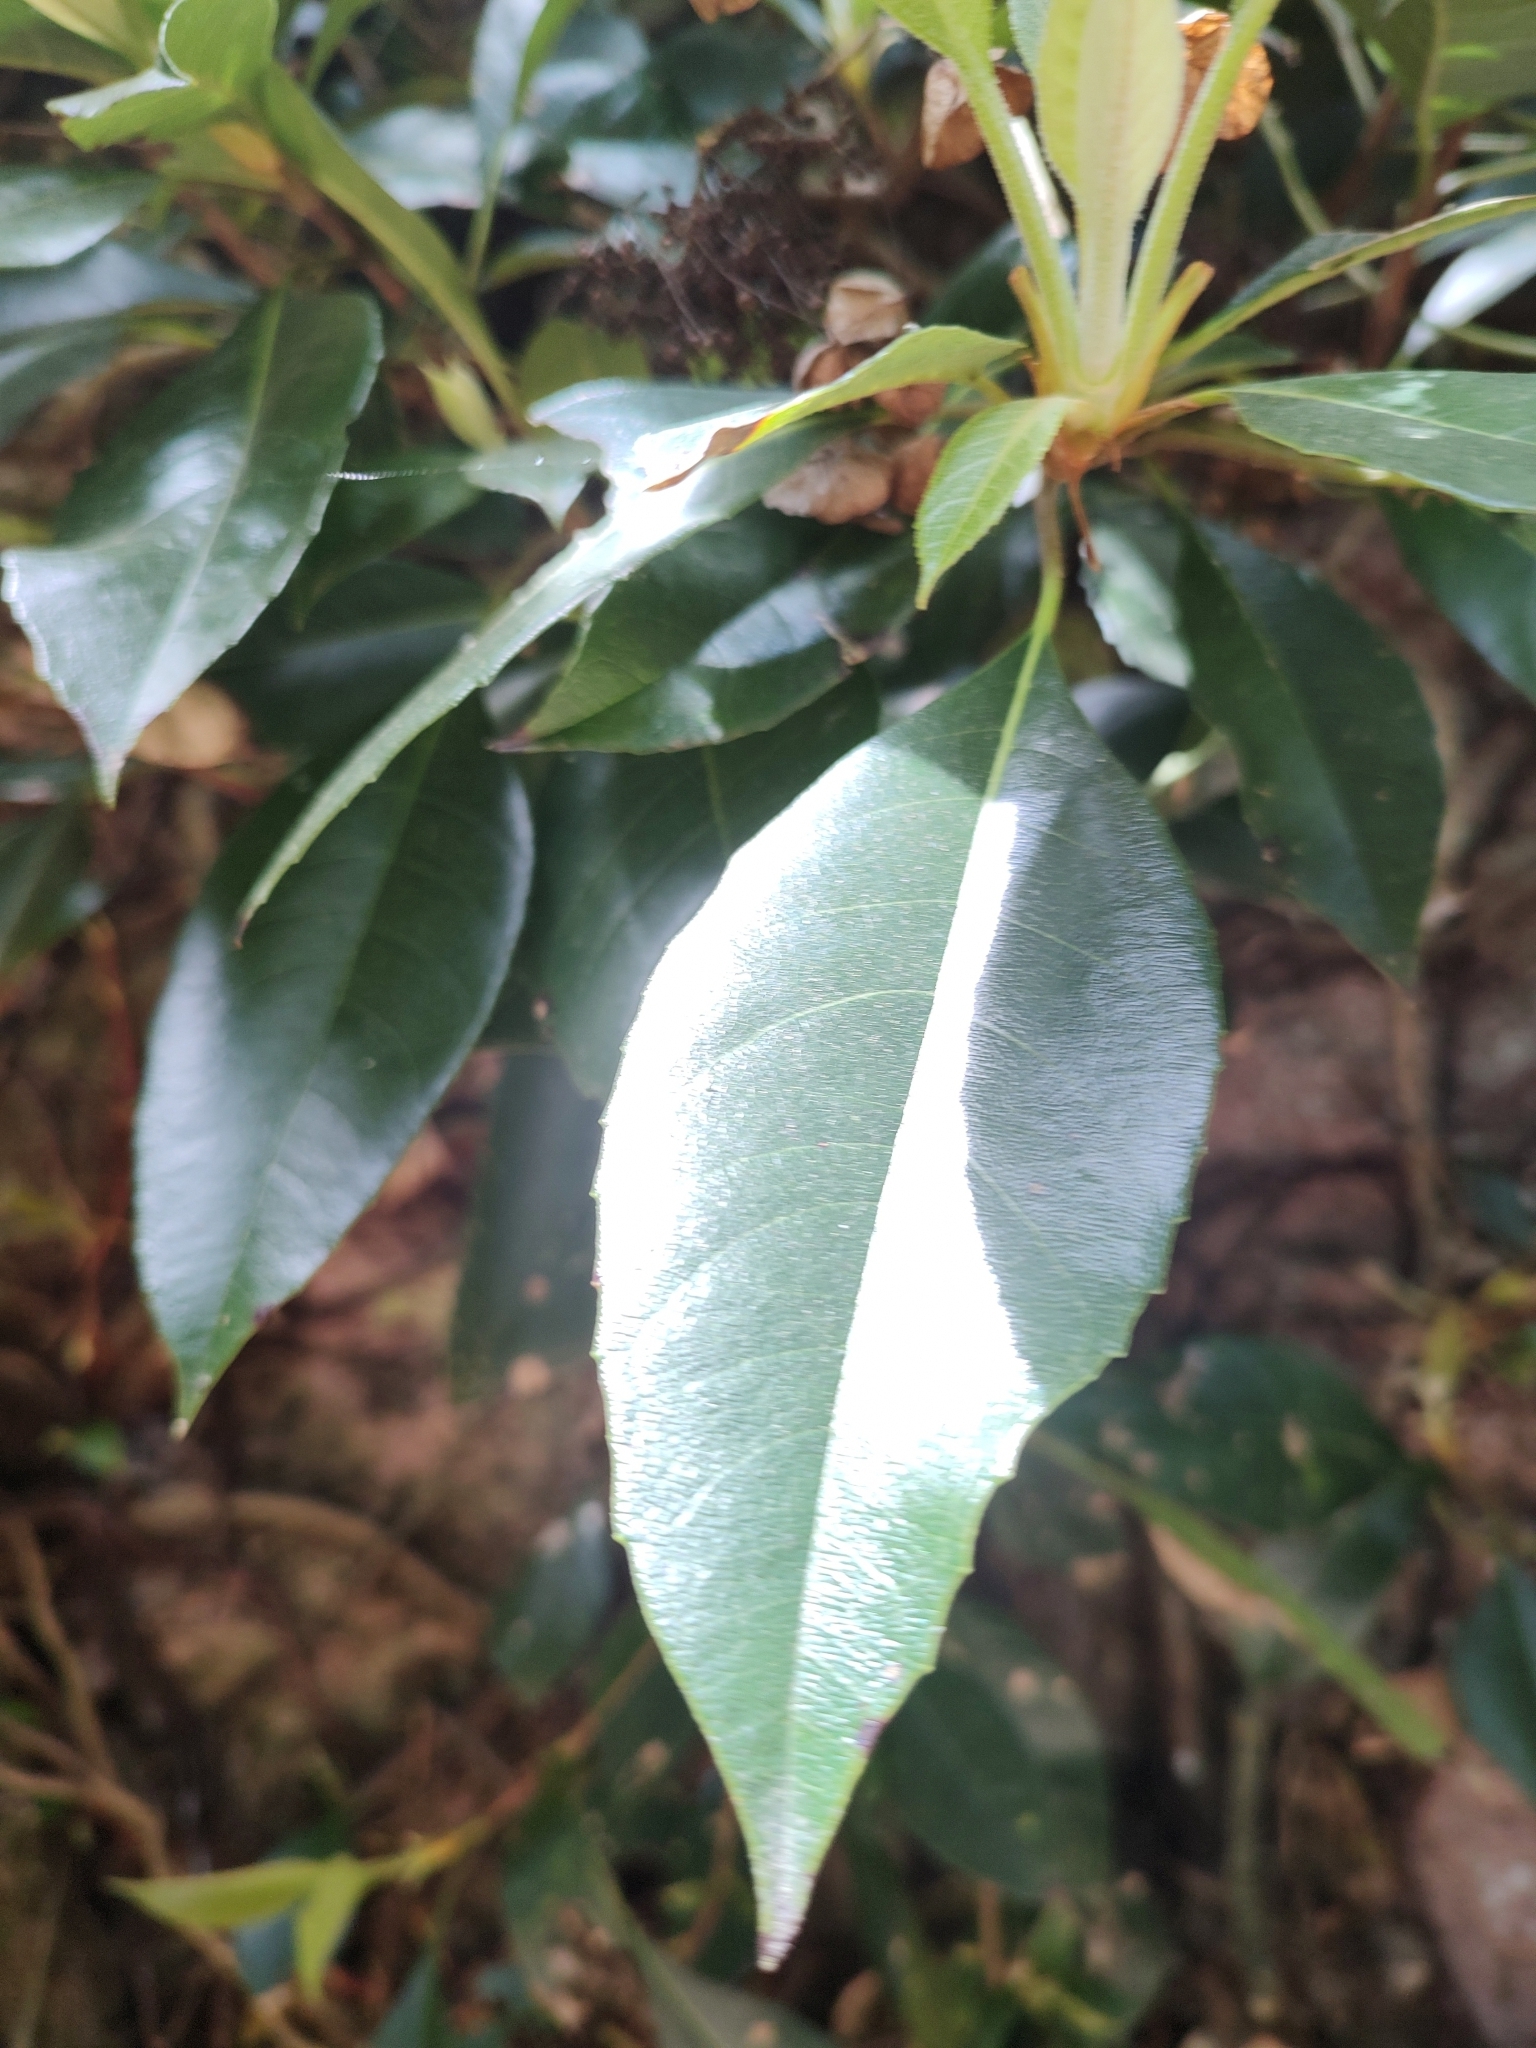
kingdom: Plantae
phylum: Tracheophyta
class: Magnoliopsida
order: Cornales
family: Hydrangeaceae
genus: Hydrangea
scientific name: Hydrangea seemannii
